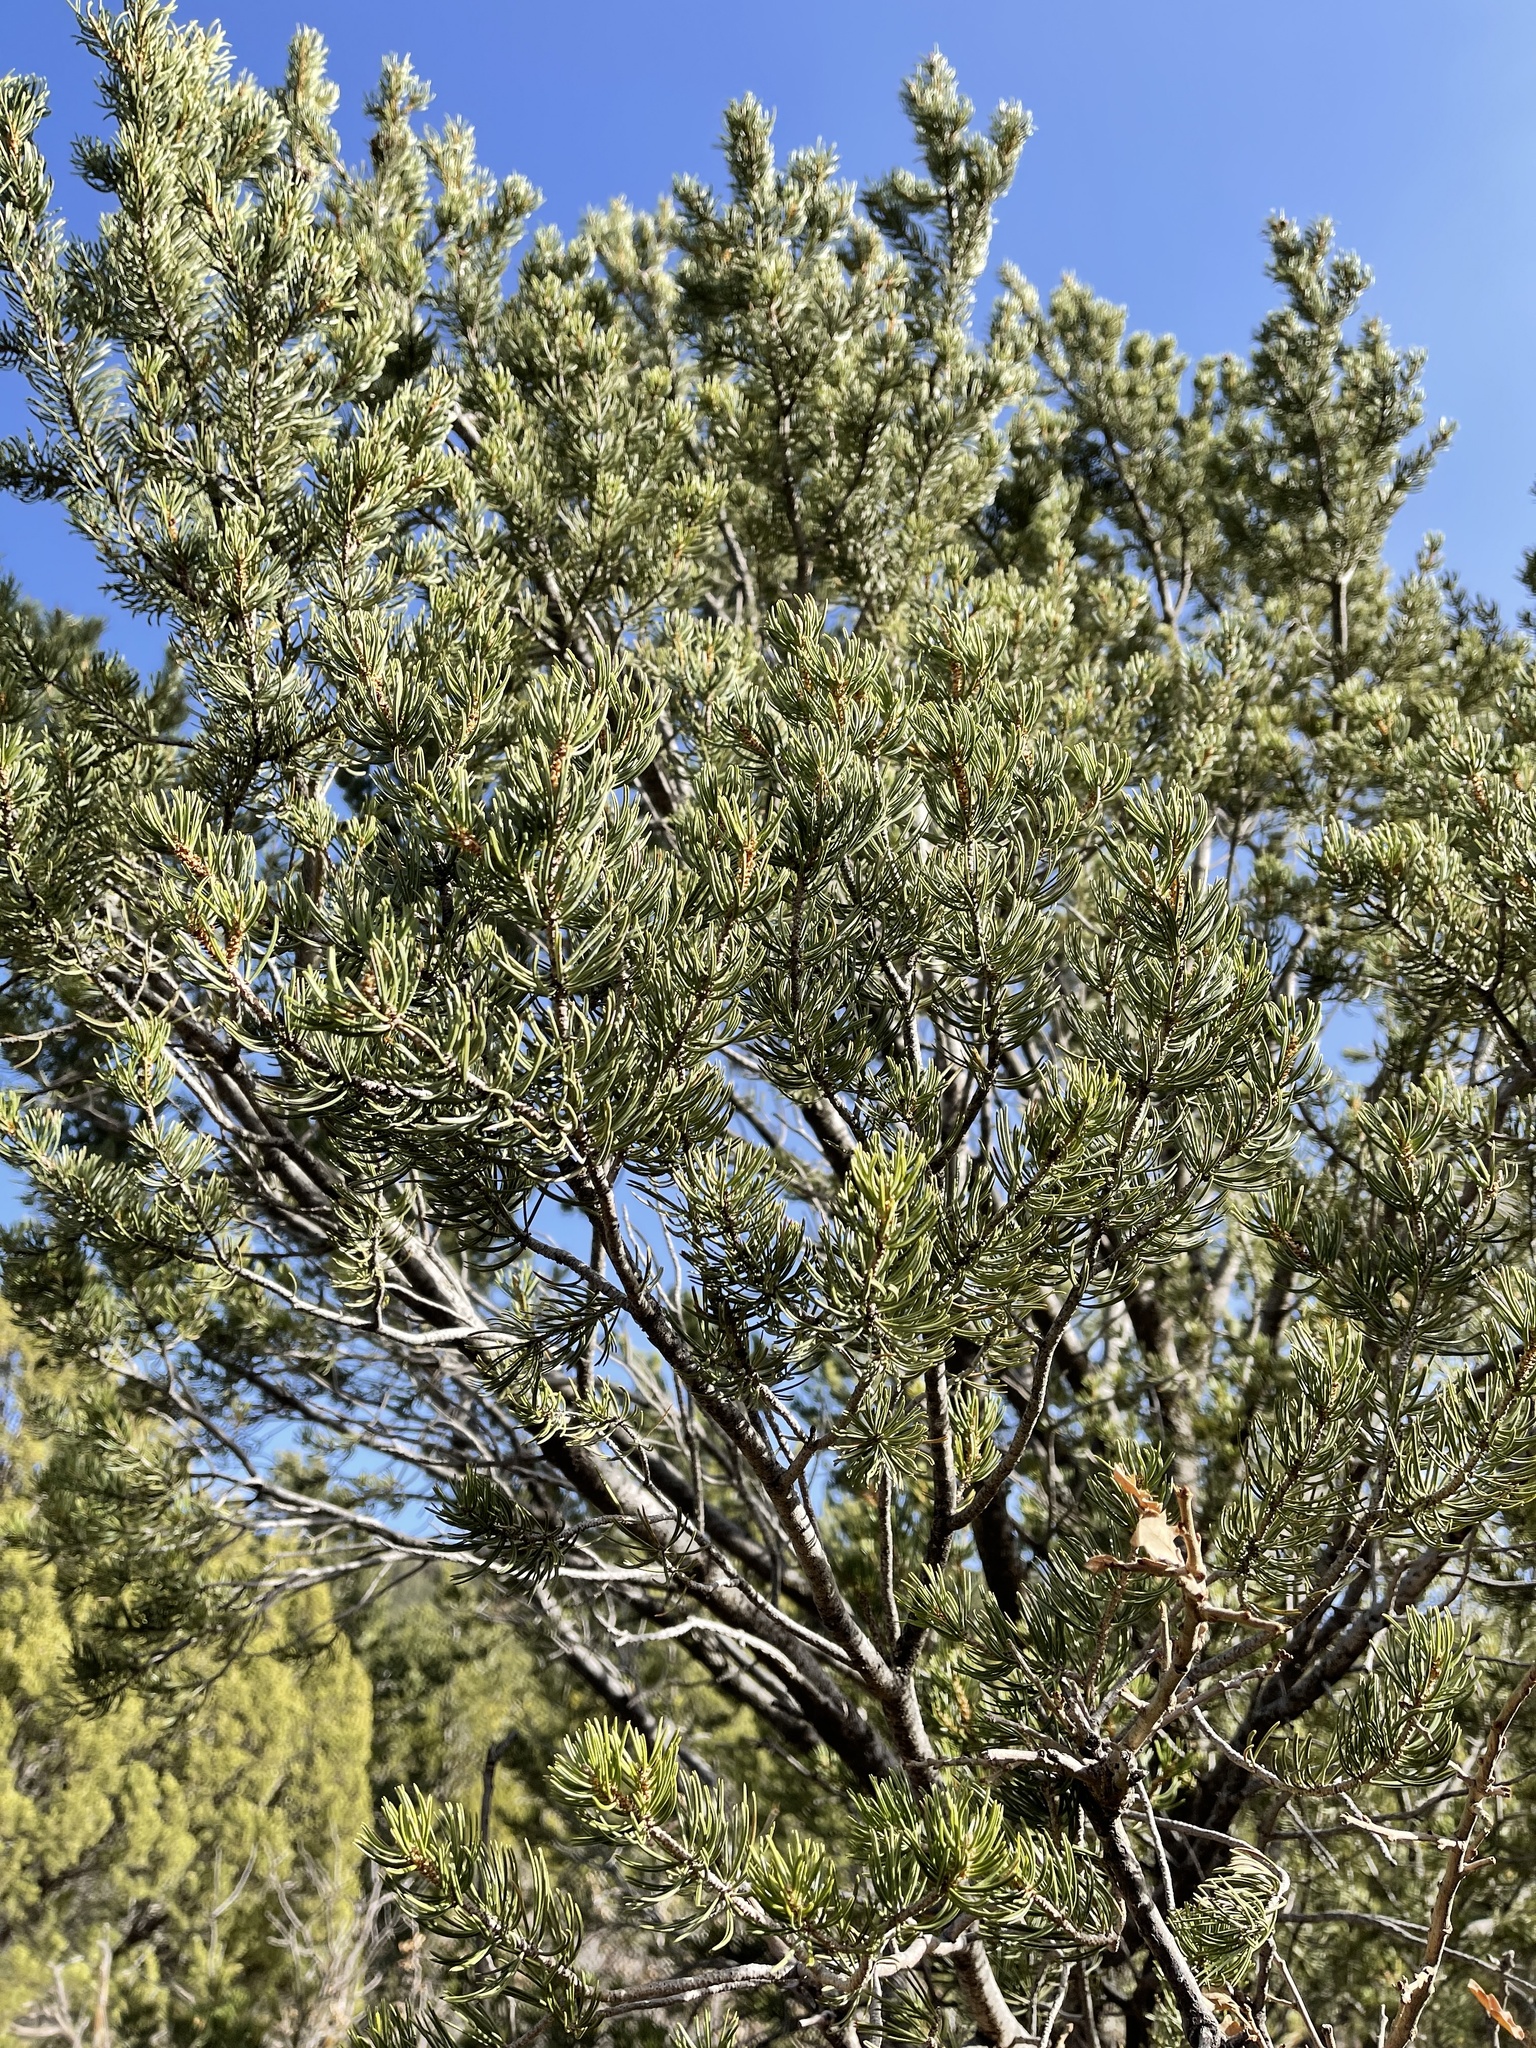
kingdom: Plantae
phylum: Tracheophyta
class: Pinopsida
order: Pinales
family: Pinaceae
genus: Pinus
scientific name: Pinus edulis
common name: Colorado pinyon
